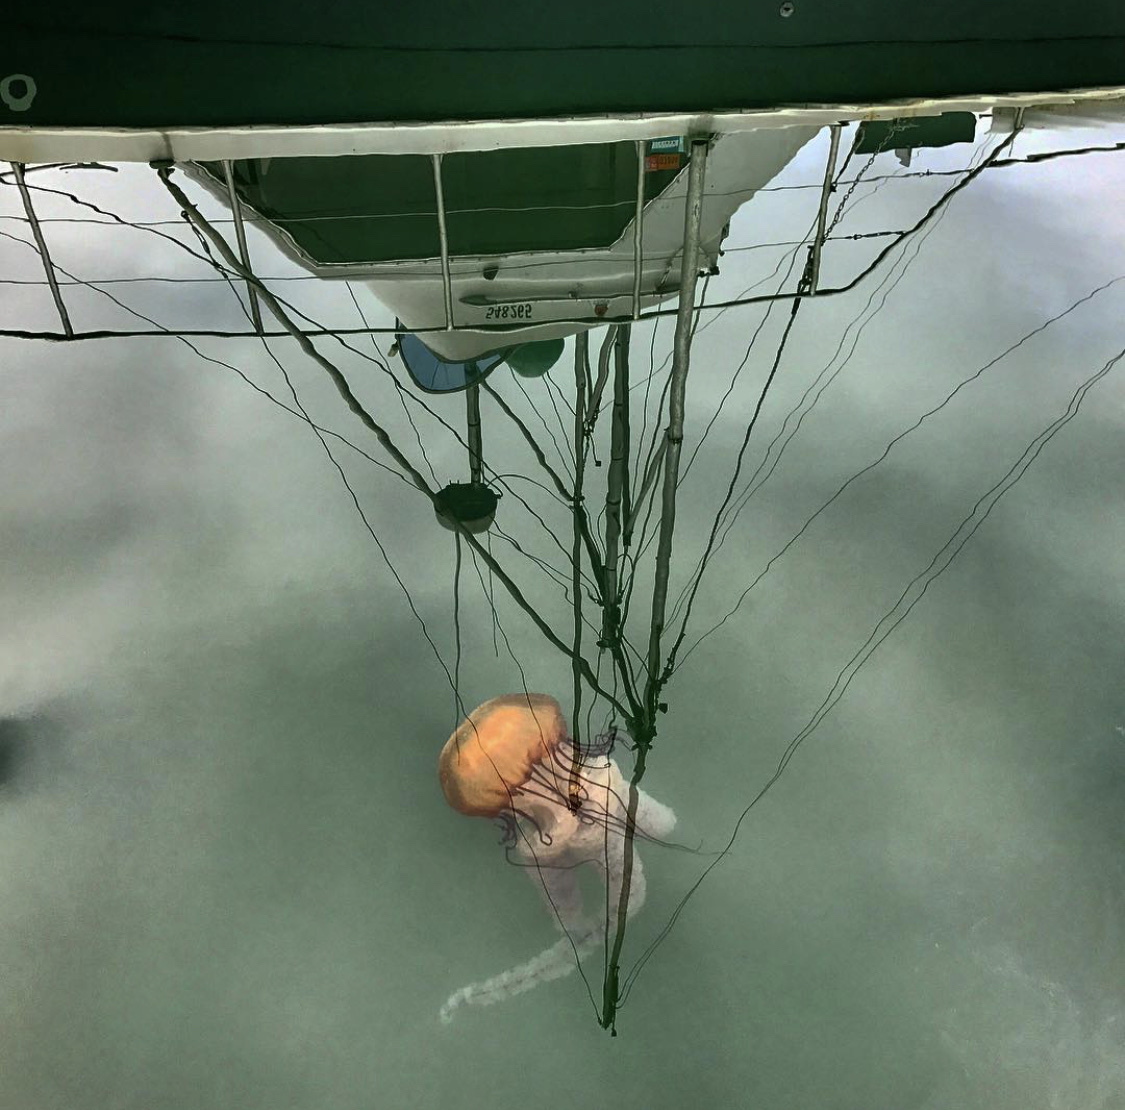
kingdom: Animalia
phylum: Cnidaria
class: Scyphozoa
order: Semaeostomeae
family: Pelagiidae
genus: Chrysaora
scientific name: Chrysaora fuscescens
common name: Sea nettle
